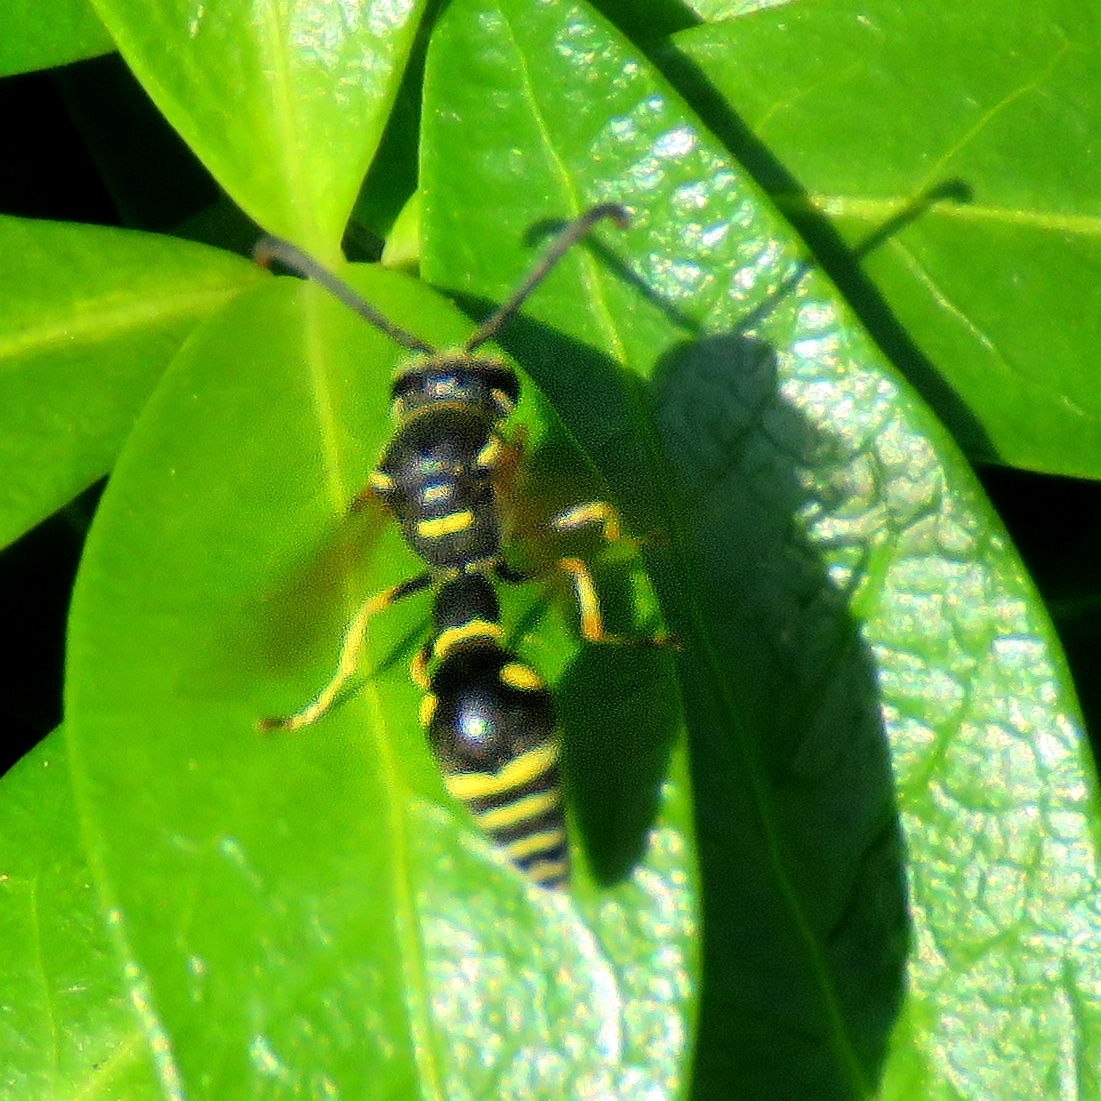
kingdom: Animalia
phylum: Arthropoda
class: Insecta
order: Hymenoptera
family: Vespidae
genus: Eumenes
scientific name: Eumenes
